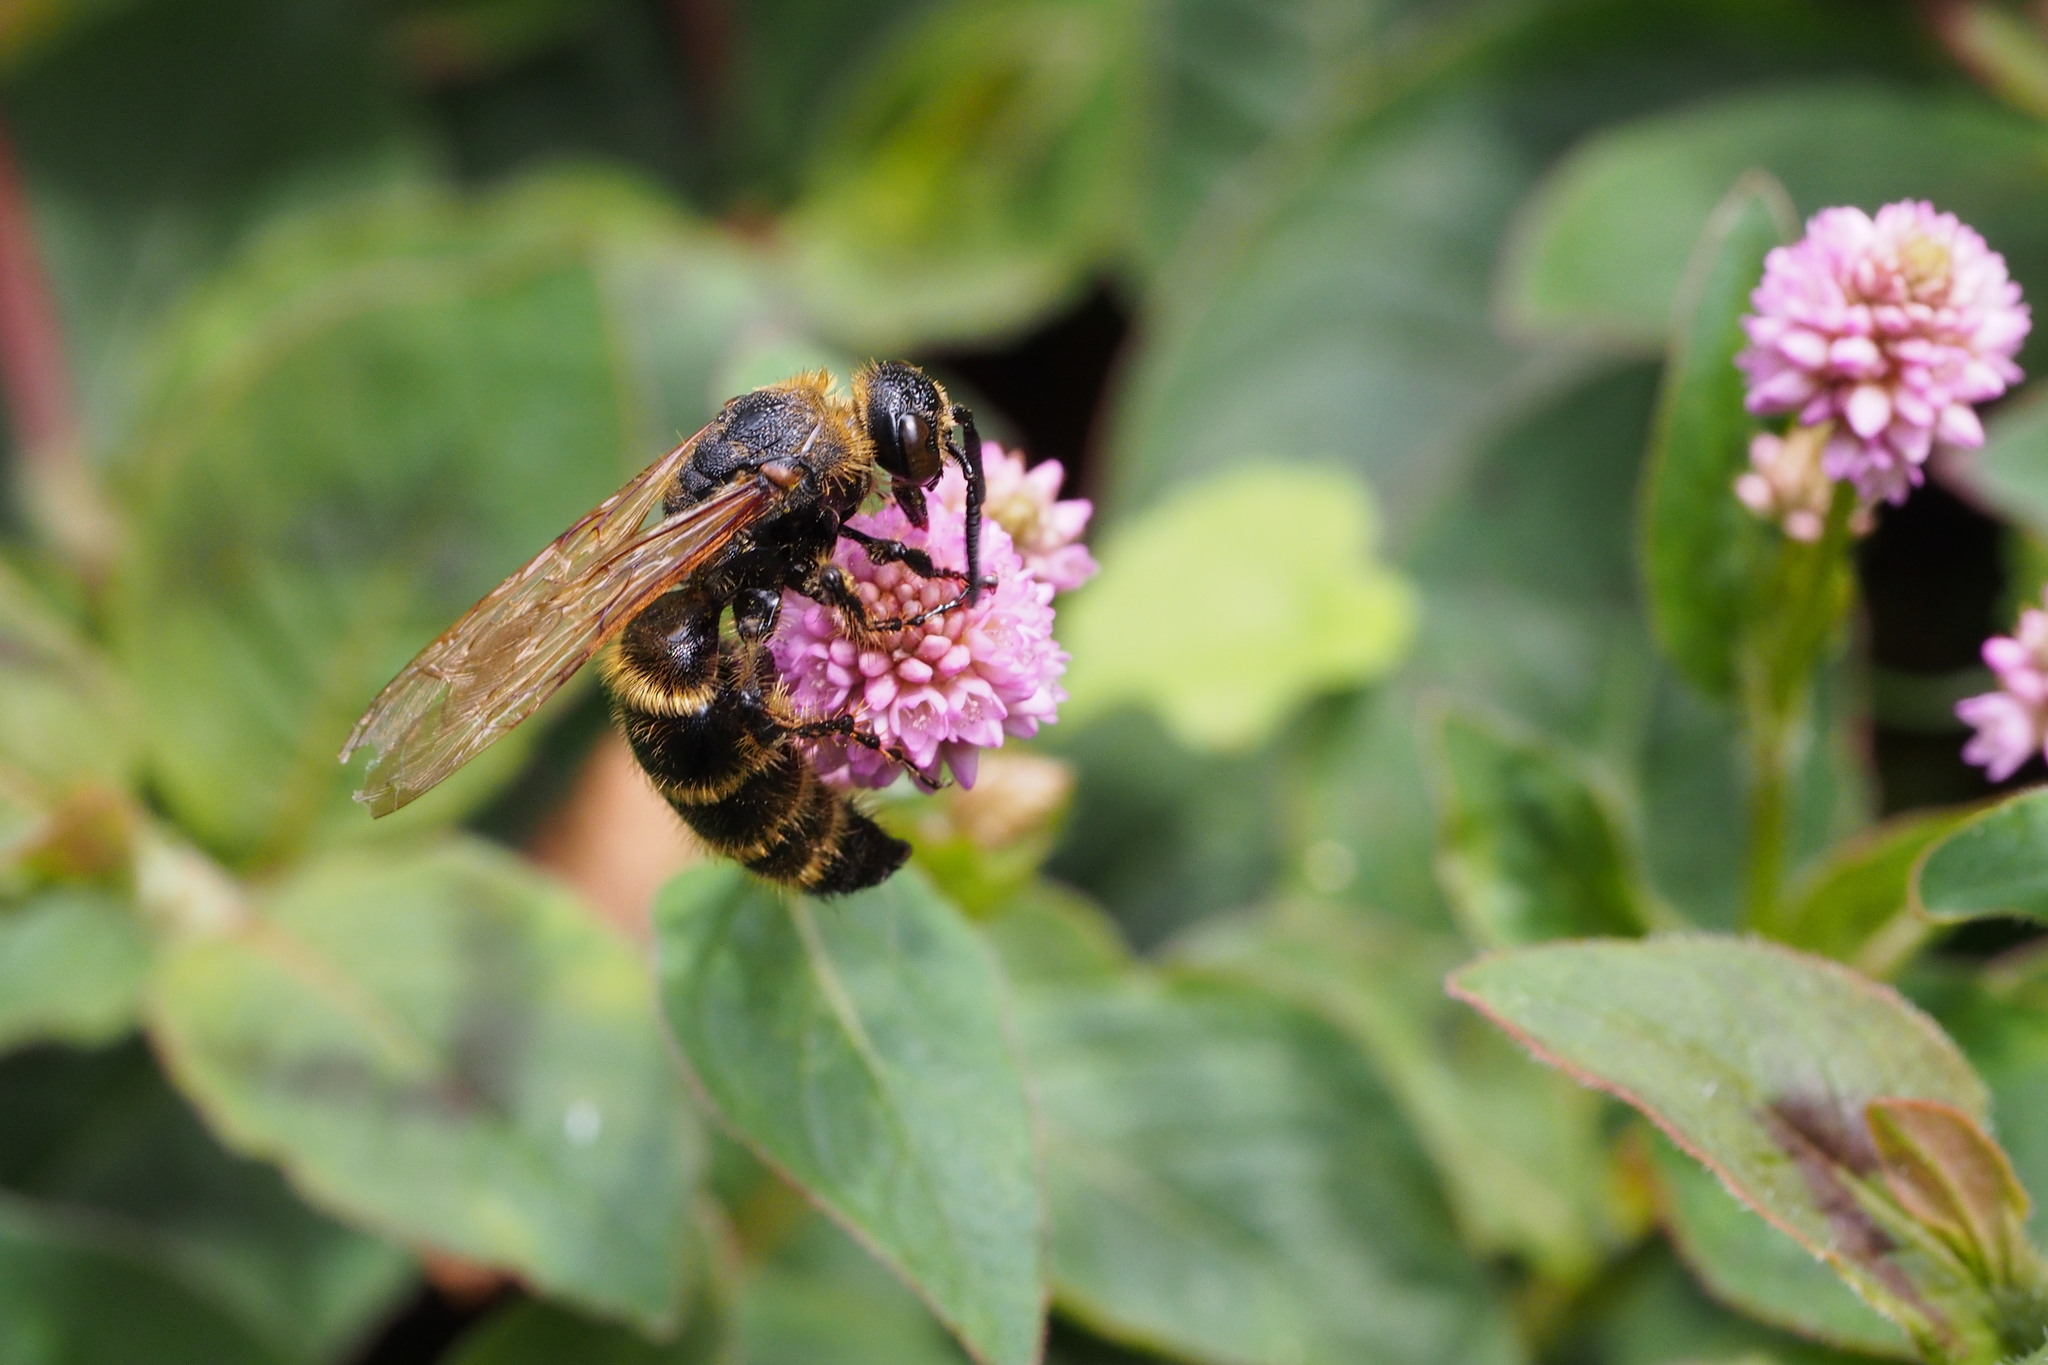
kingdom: Animalia
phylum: Arthropoda
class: Insecta
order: Hymenoptera
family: Scoliidae
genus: Campsomeris
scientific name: Campsomeris prismatica
